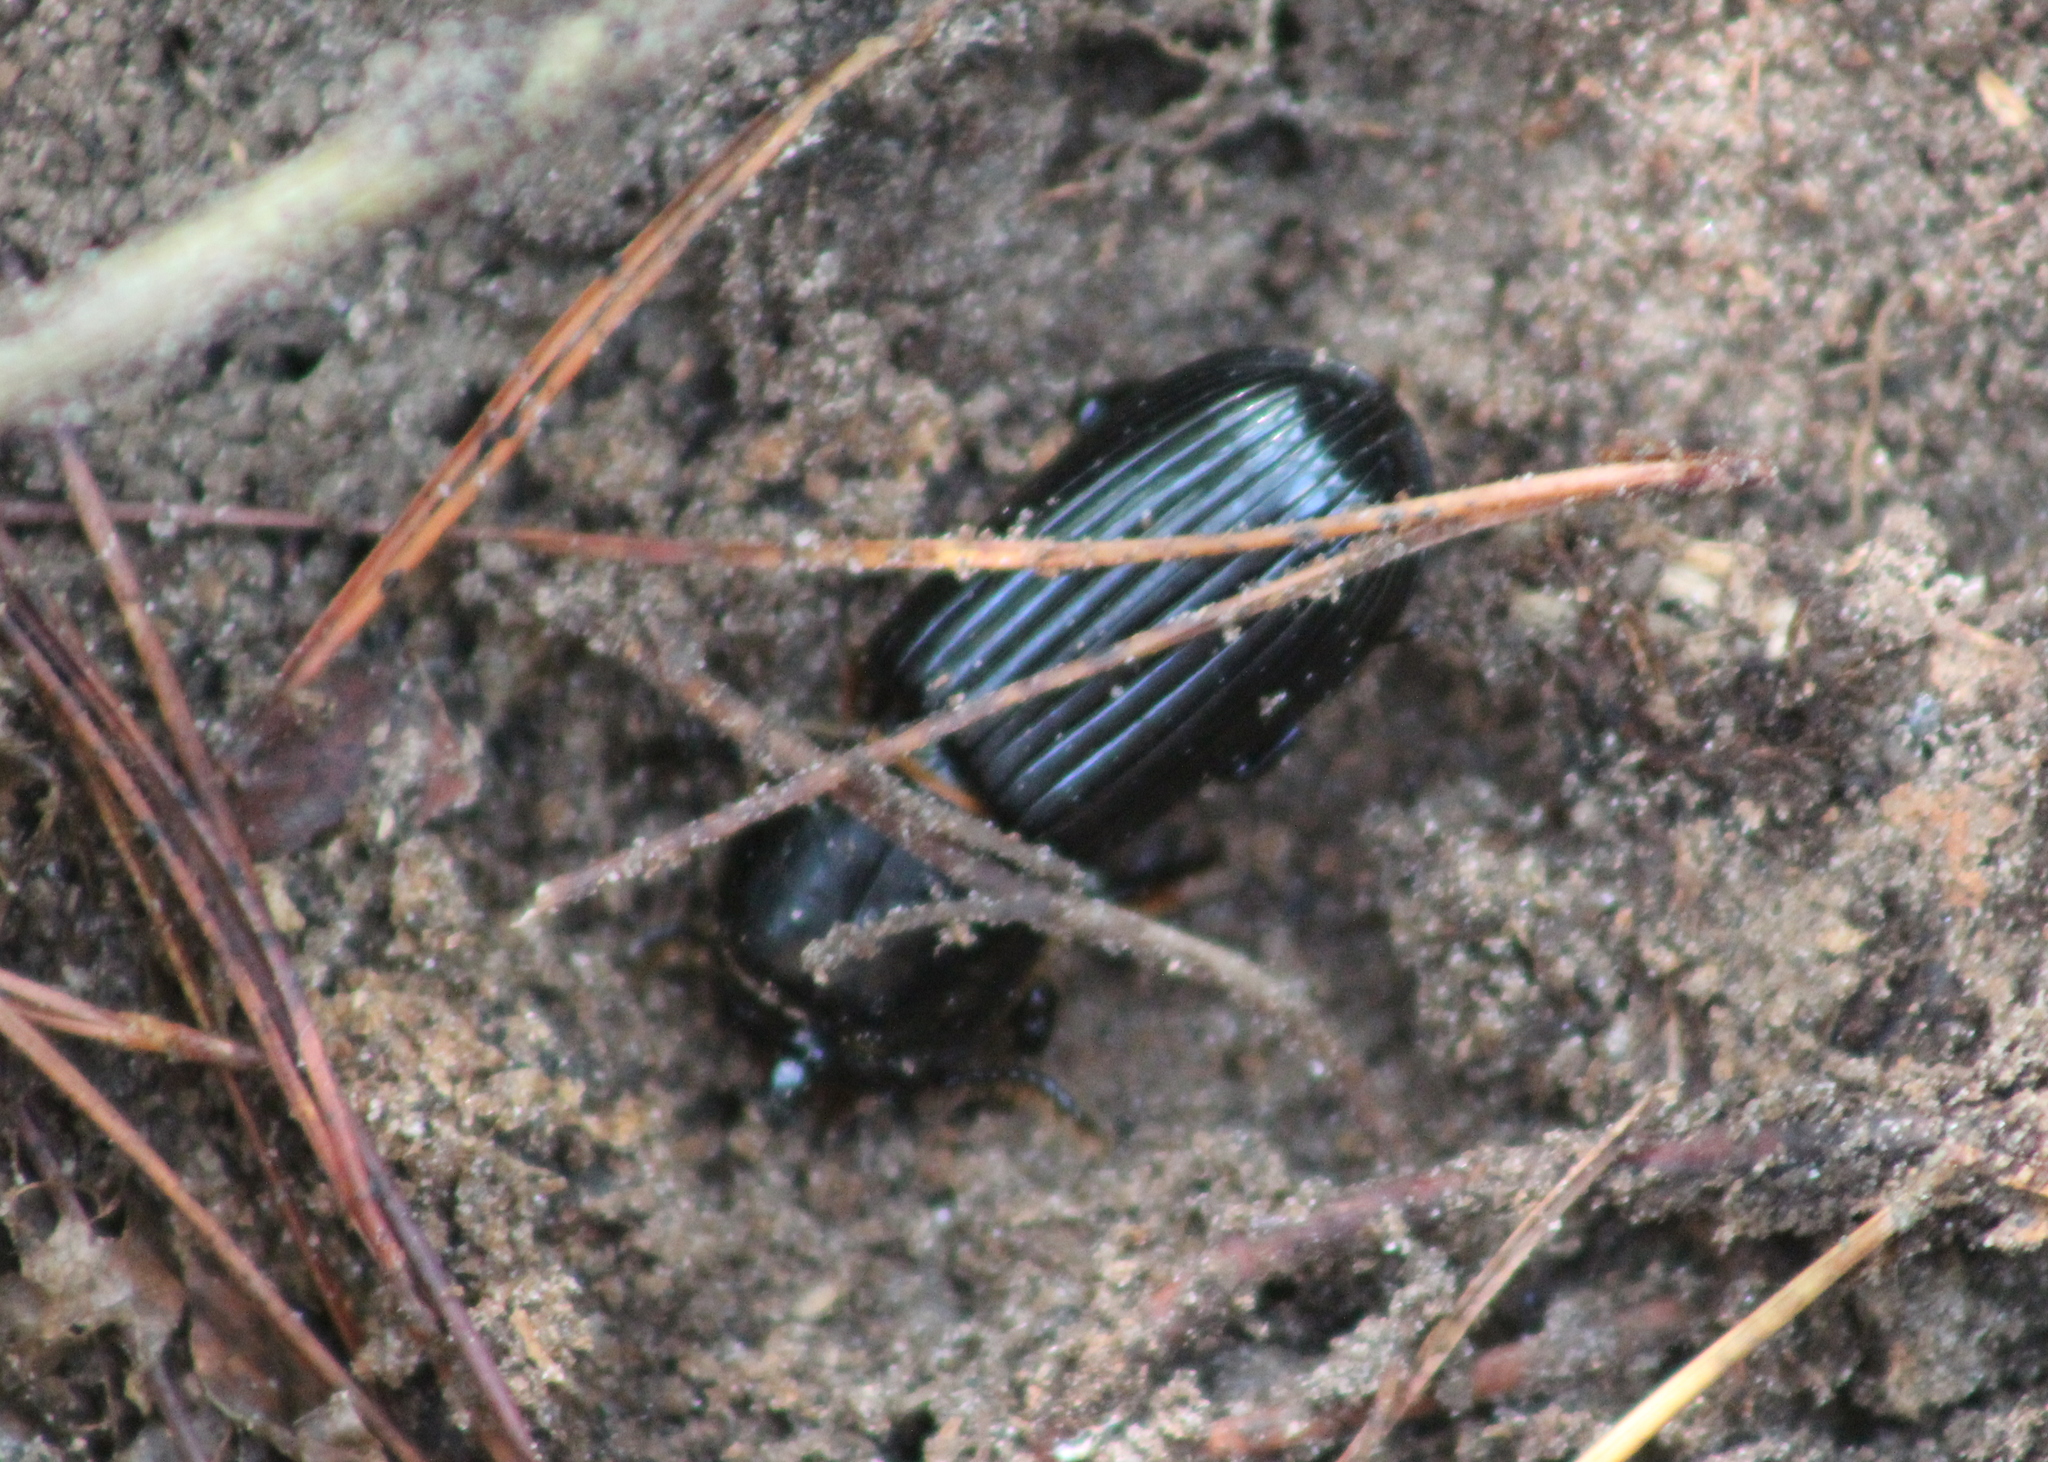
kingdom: Animalia
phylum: Arthropoda
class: Insecta
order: Coleoptera
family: Passalidae
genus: Odontotaenius
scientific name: Odontotaenius disjunctus
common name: Patent leather beetle
